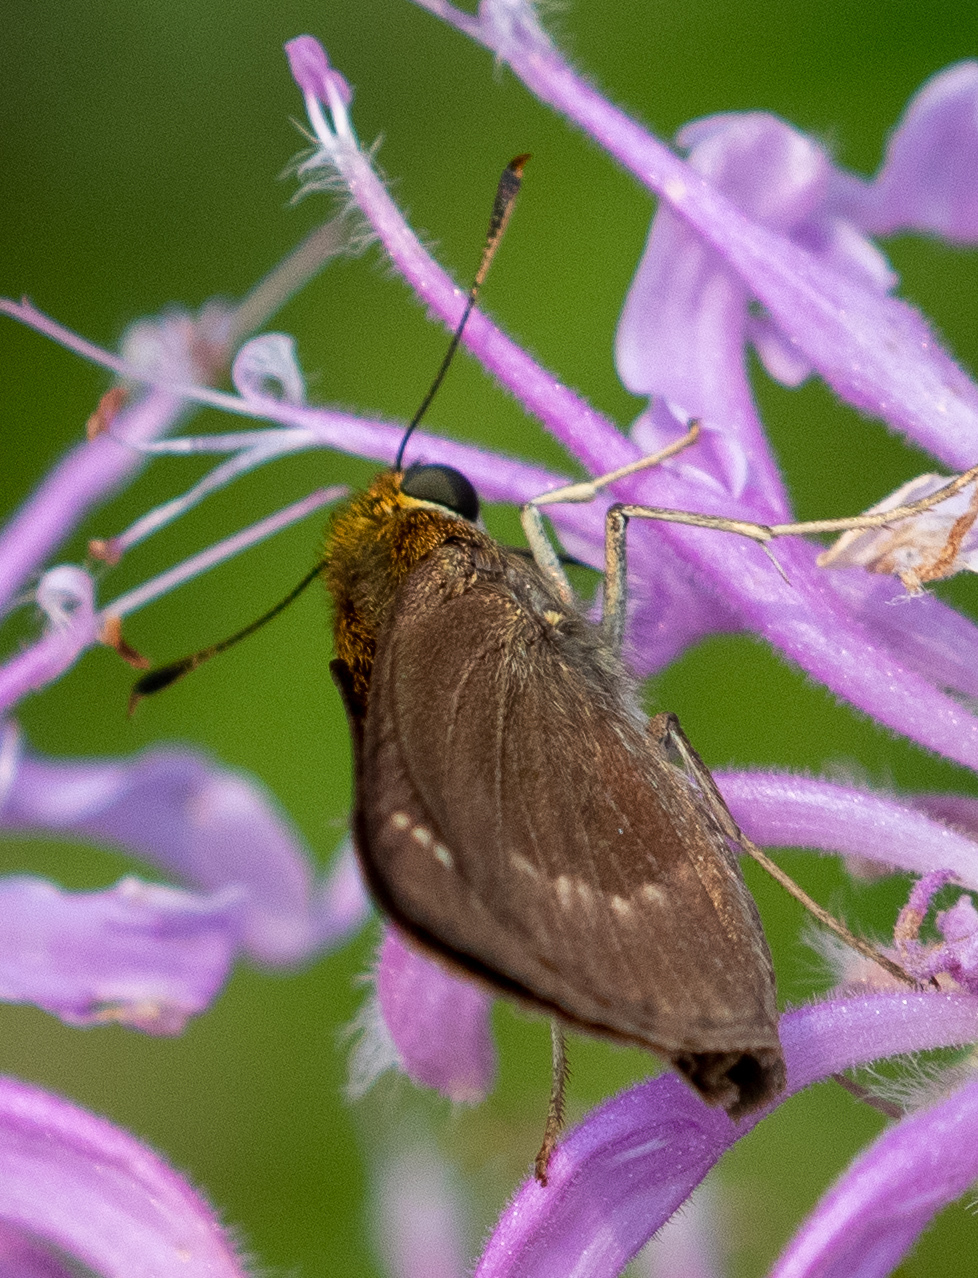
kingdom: Animalia
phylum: Arthropoda
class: Insecta
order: Lepidoptera
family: Hesperiidae
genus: Euphyes
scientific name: Euphyes vestris
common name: Dun skipper
